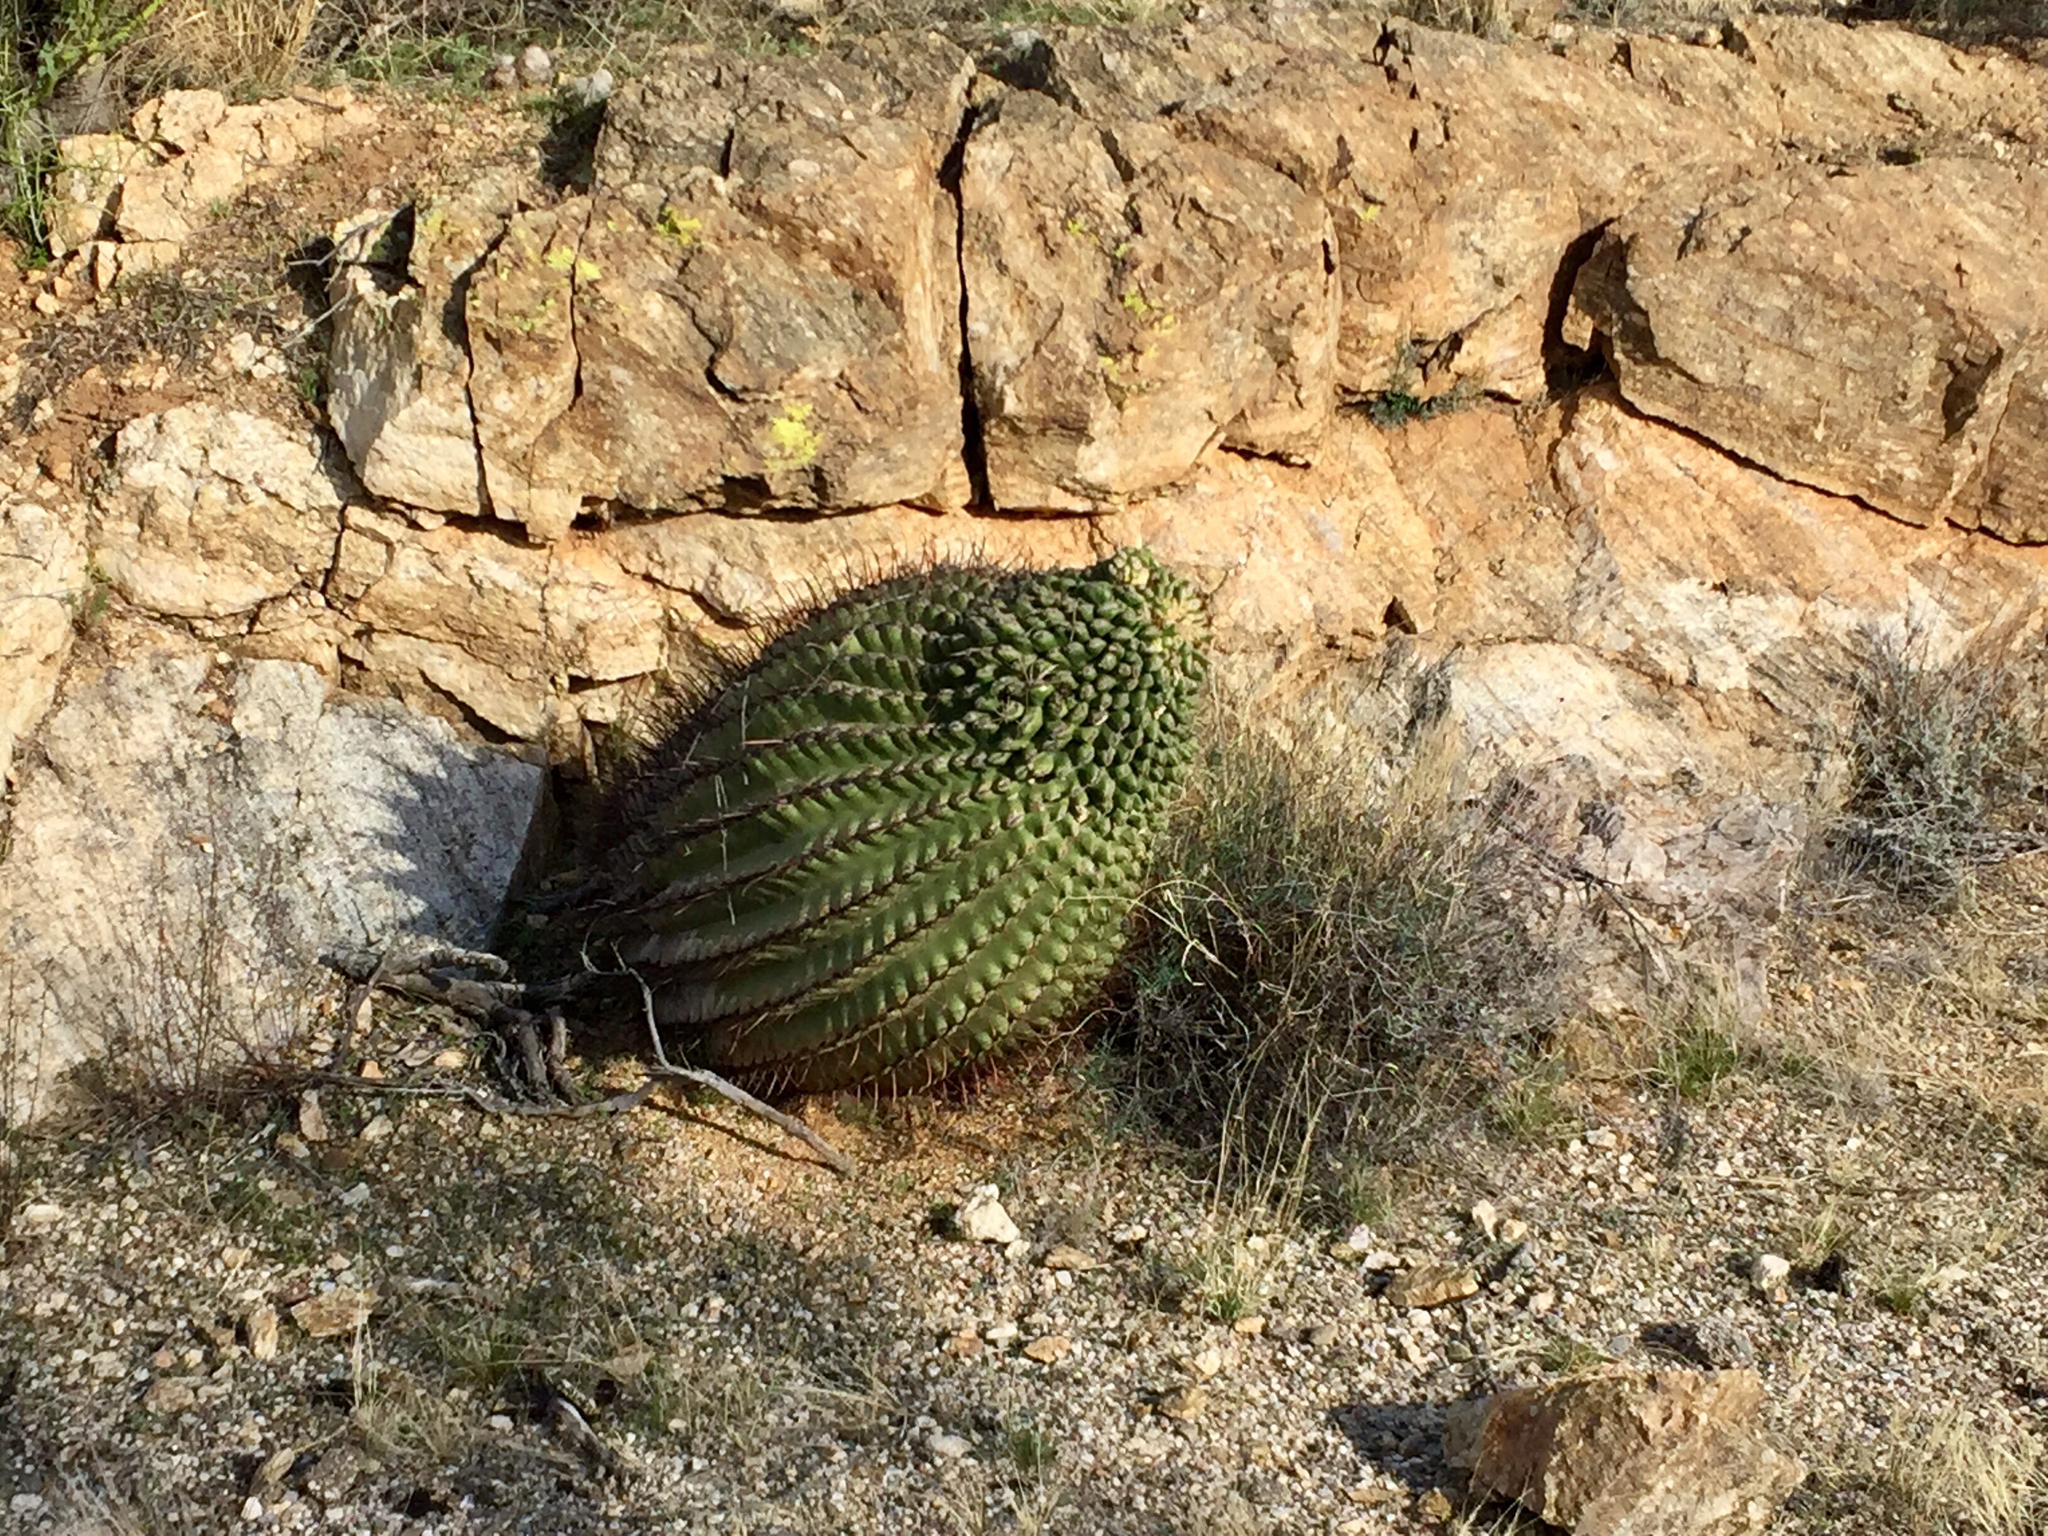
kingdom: Plantae
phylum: Tracheophyta
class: Magnoliopsida
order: Caryophyllales
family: Cactaceae
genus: Ferocactus
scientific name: Ferocactus wislizeni
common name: Candy barrel cactus
